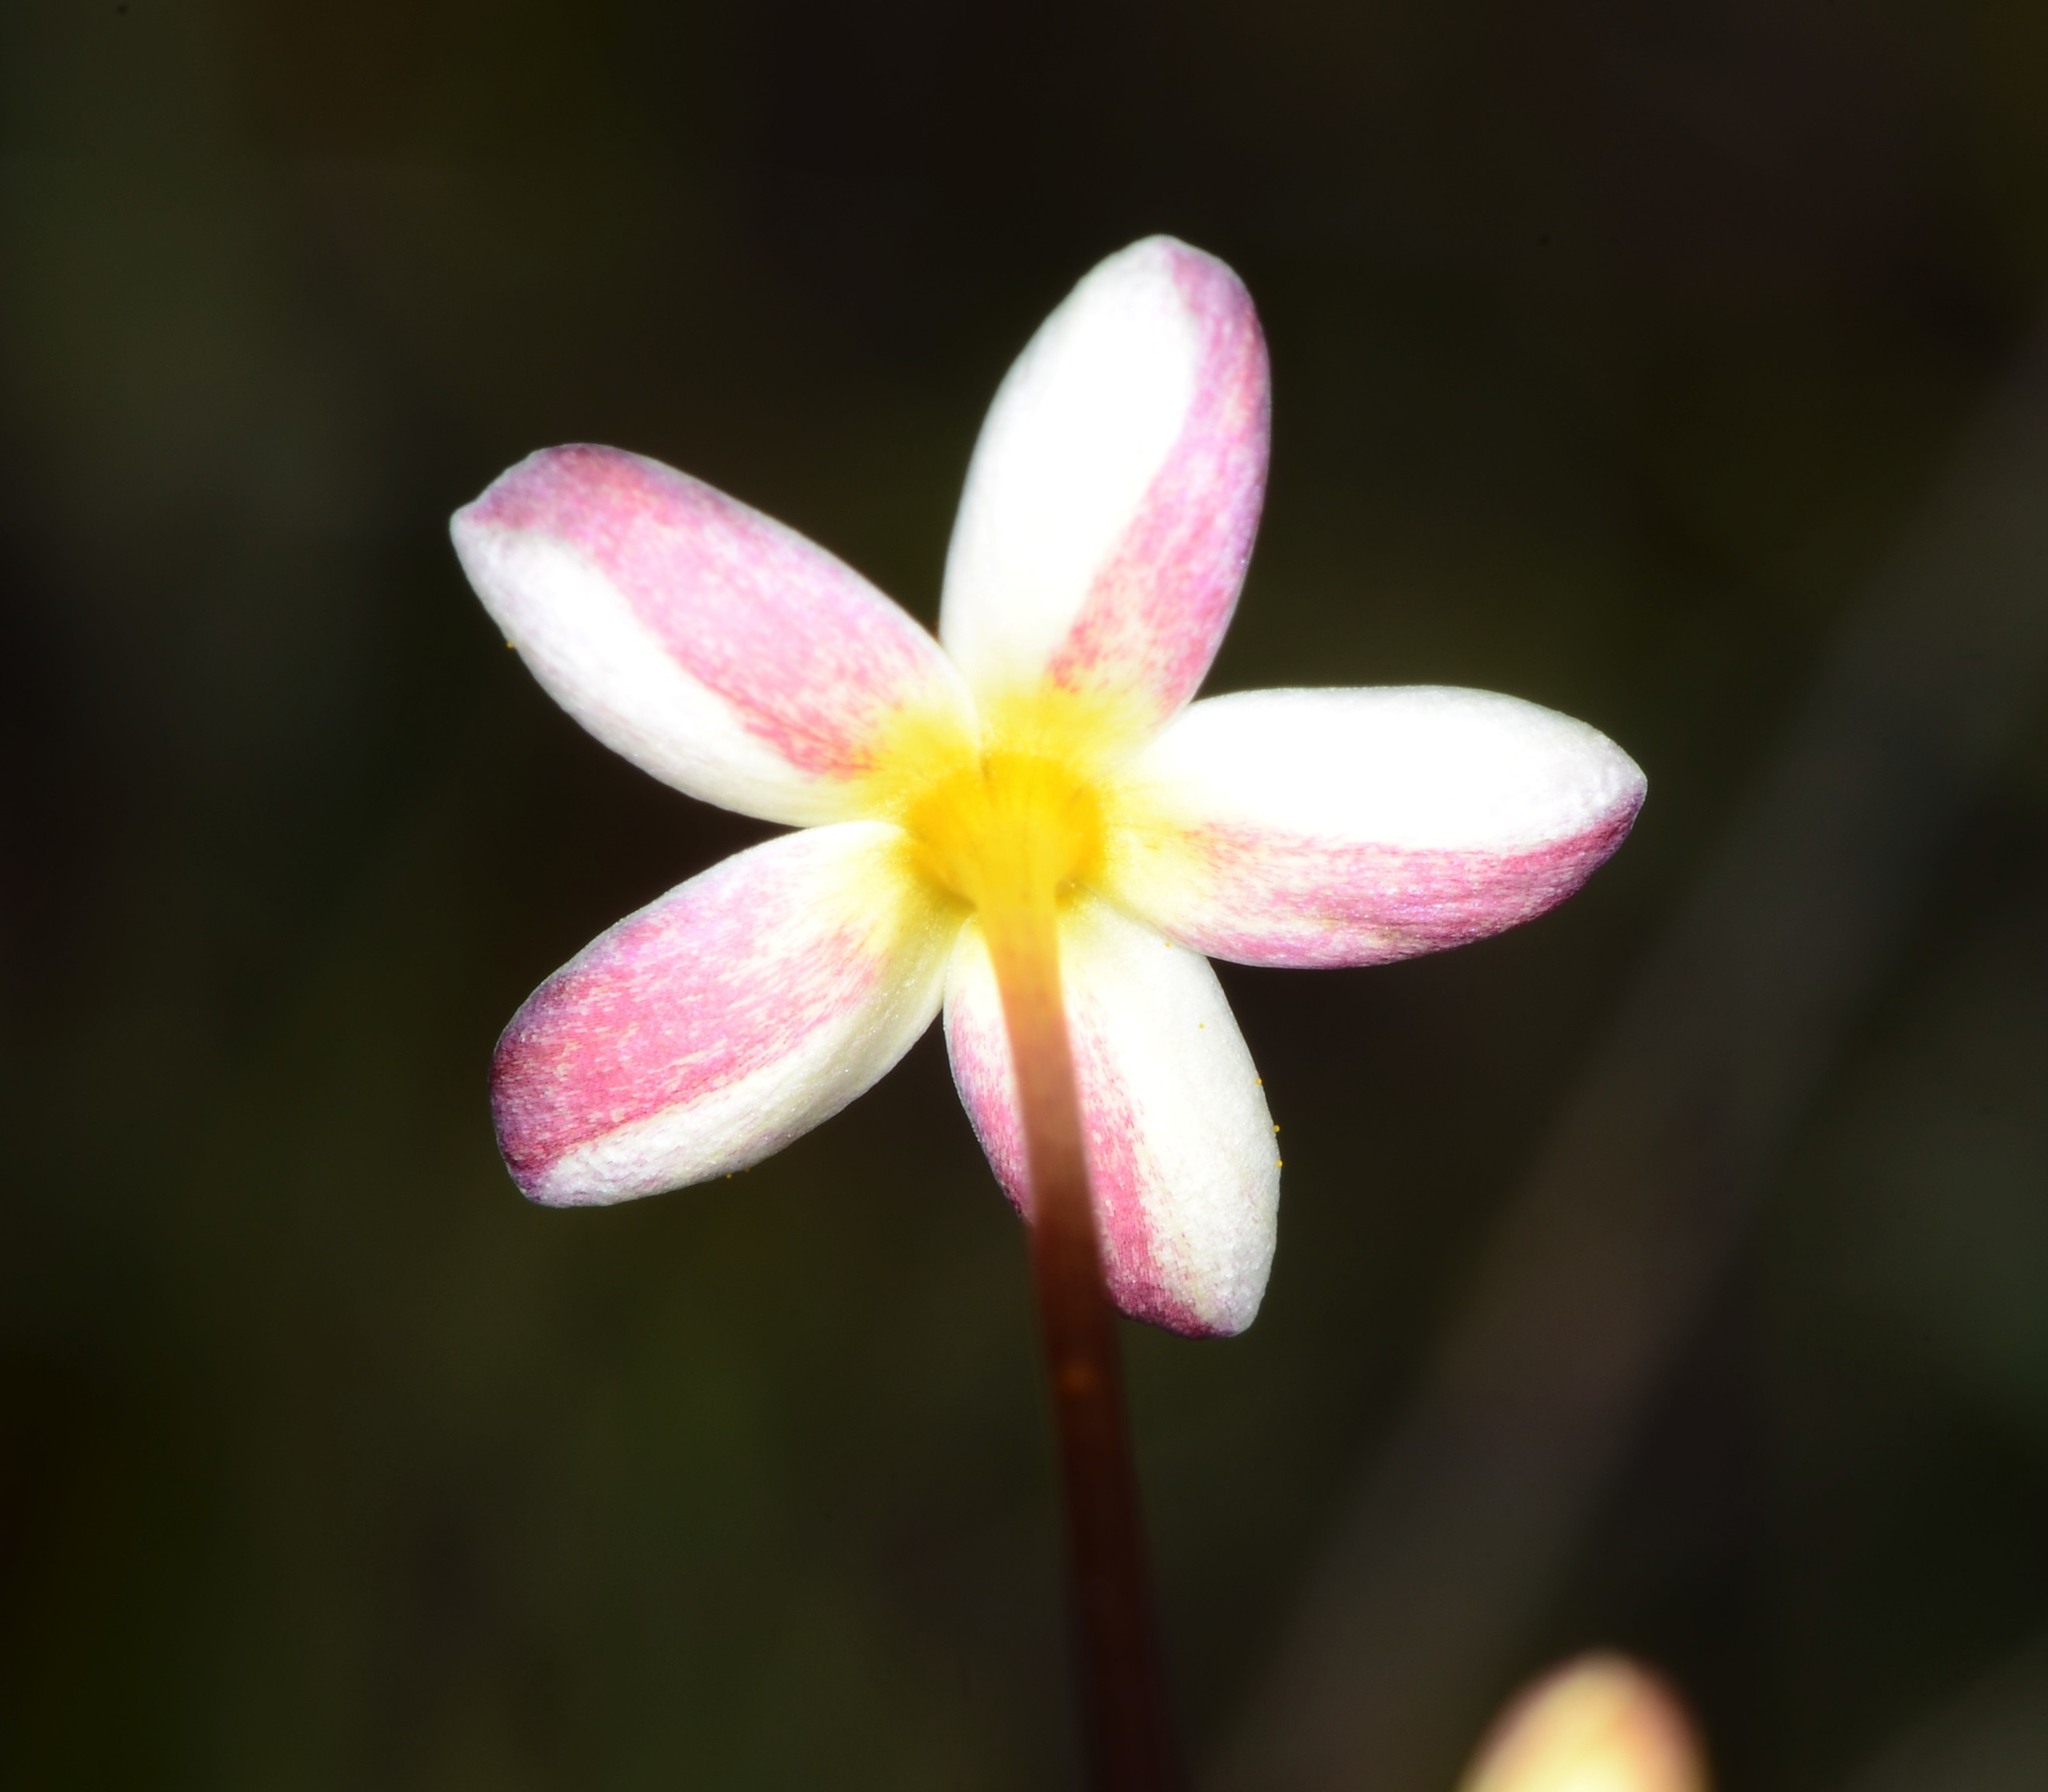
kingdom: Plantae
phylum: Tracheophyta
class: Magnoliopsida
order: Ericales
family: Polemoniaceae
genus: Leptosiphon
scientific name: Leptosiphon bicolor
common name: True babystars
